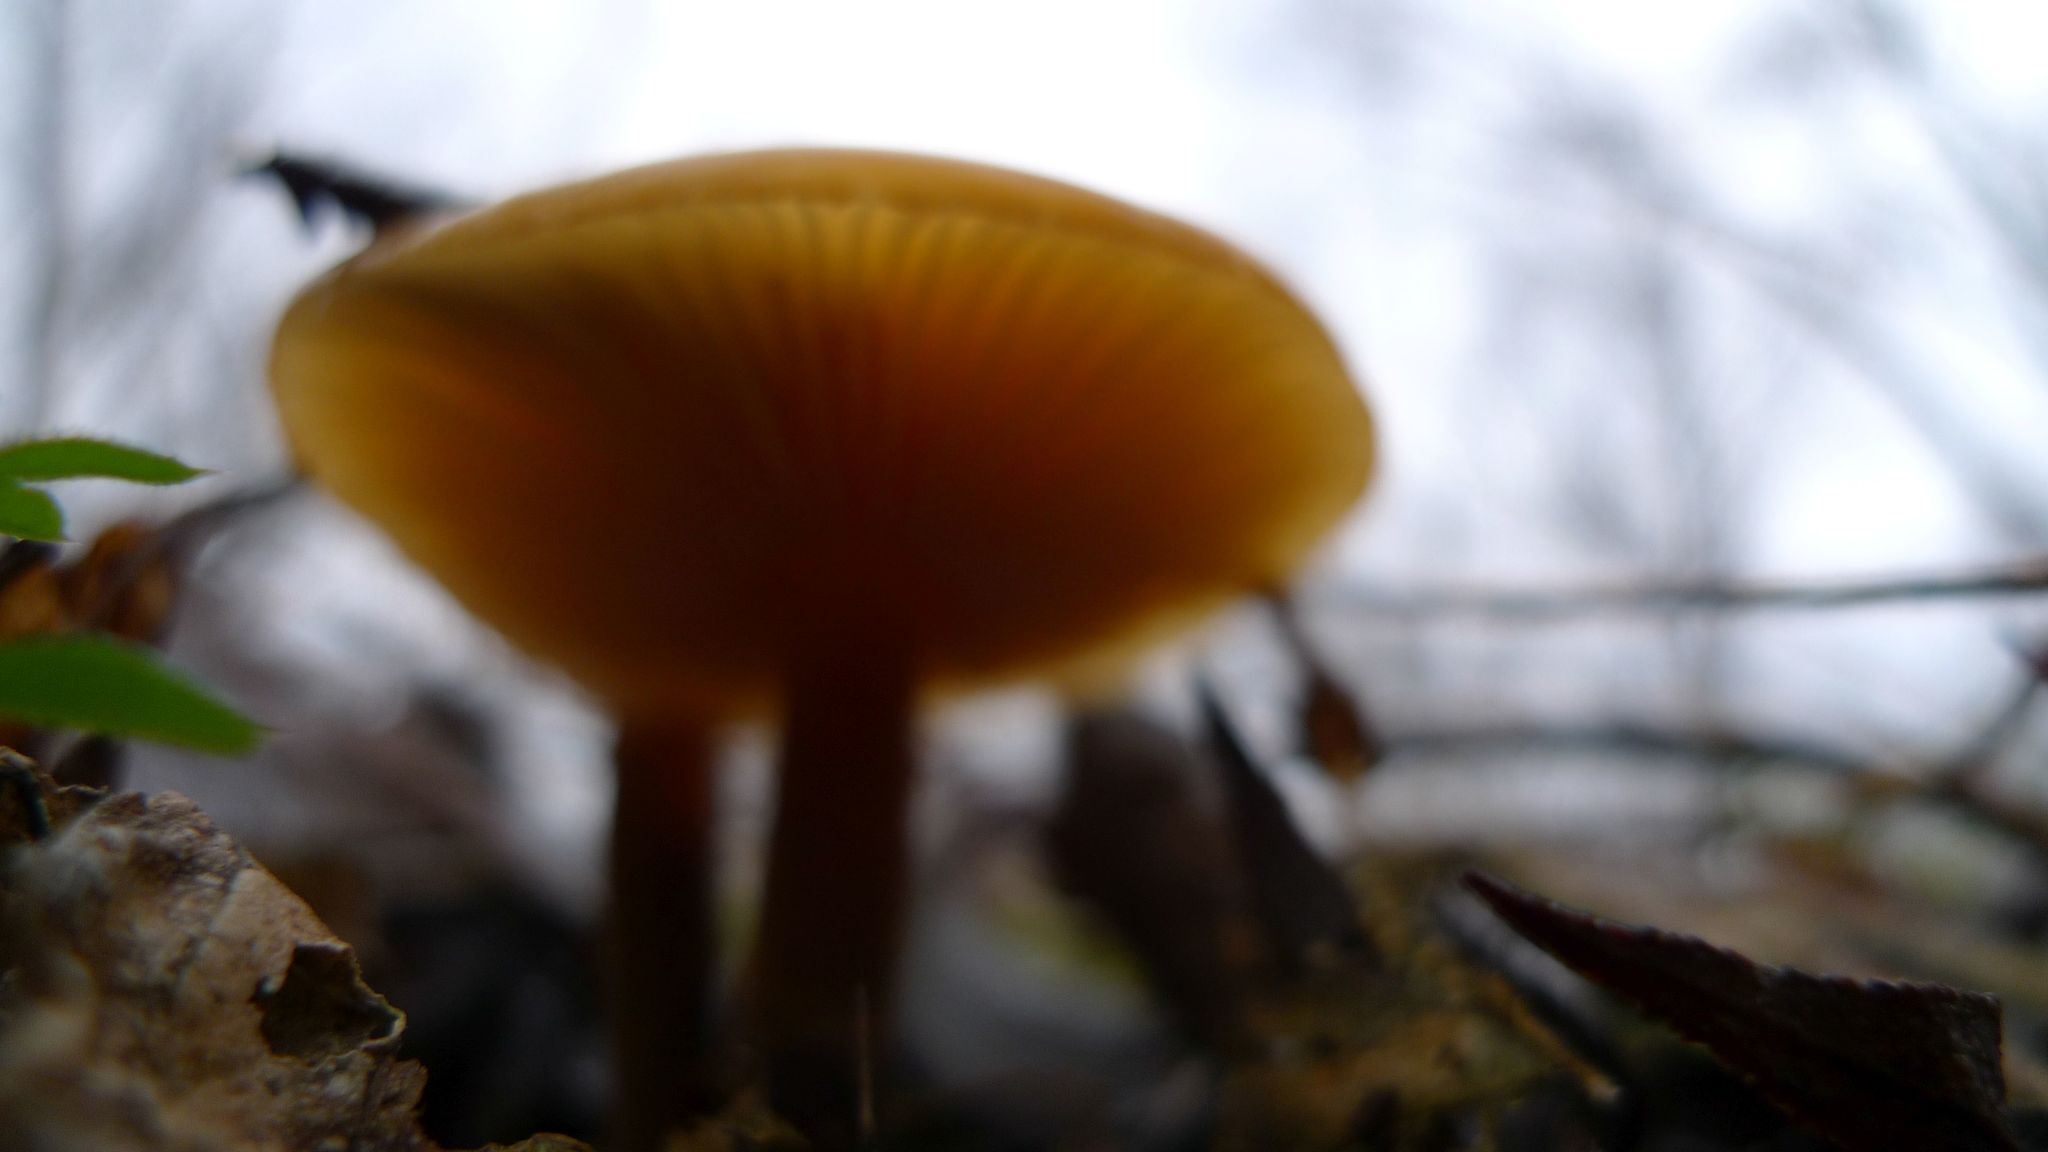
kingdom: Fungi
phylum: Basidiomycota
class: Agaricomycetes
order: Agaricales
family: Physalacriaceae
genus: Flammulina
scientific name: Flammulina
